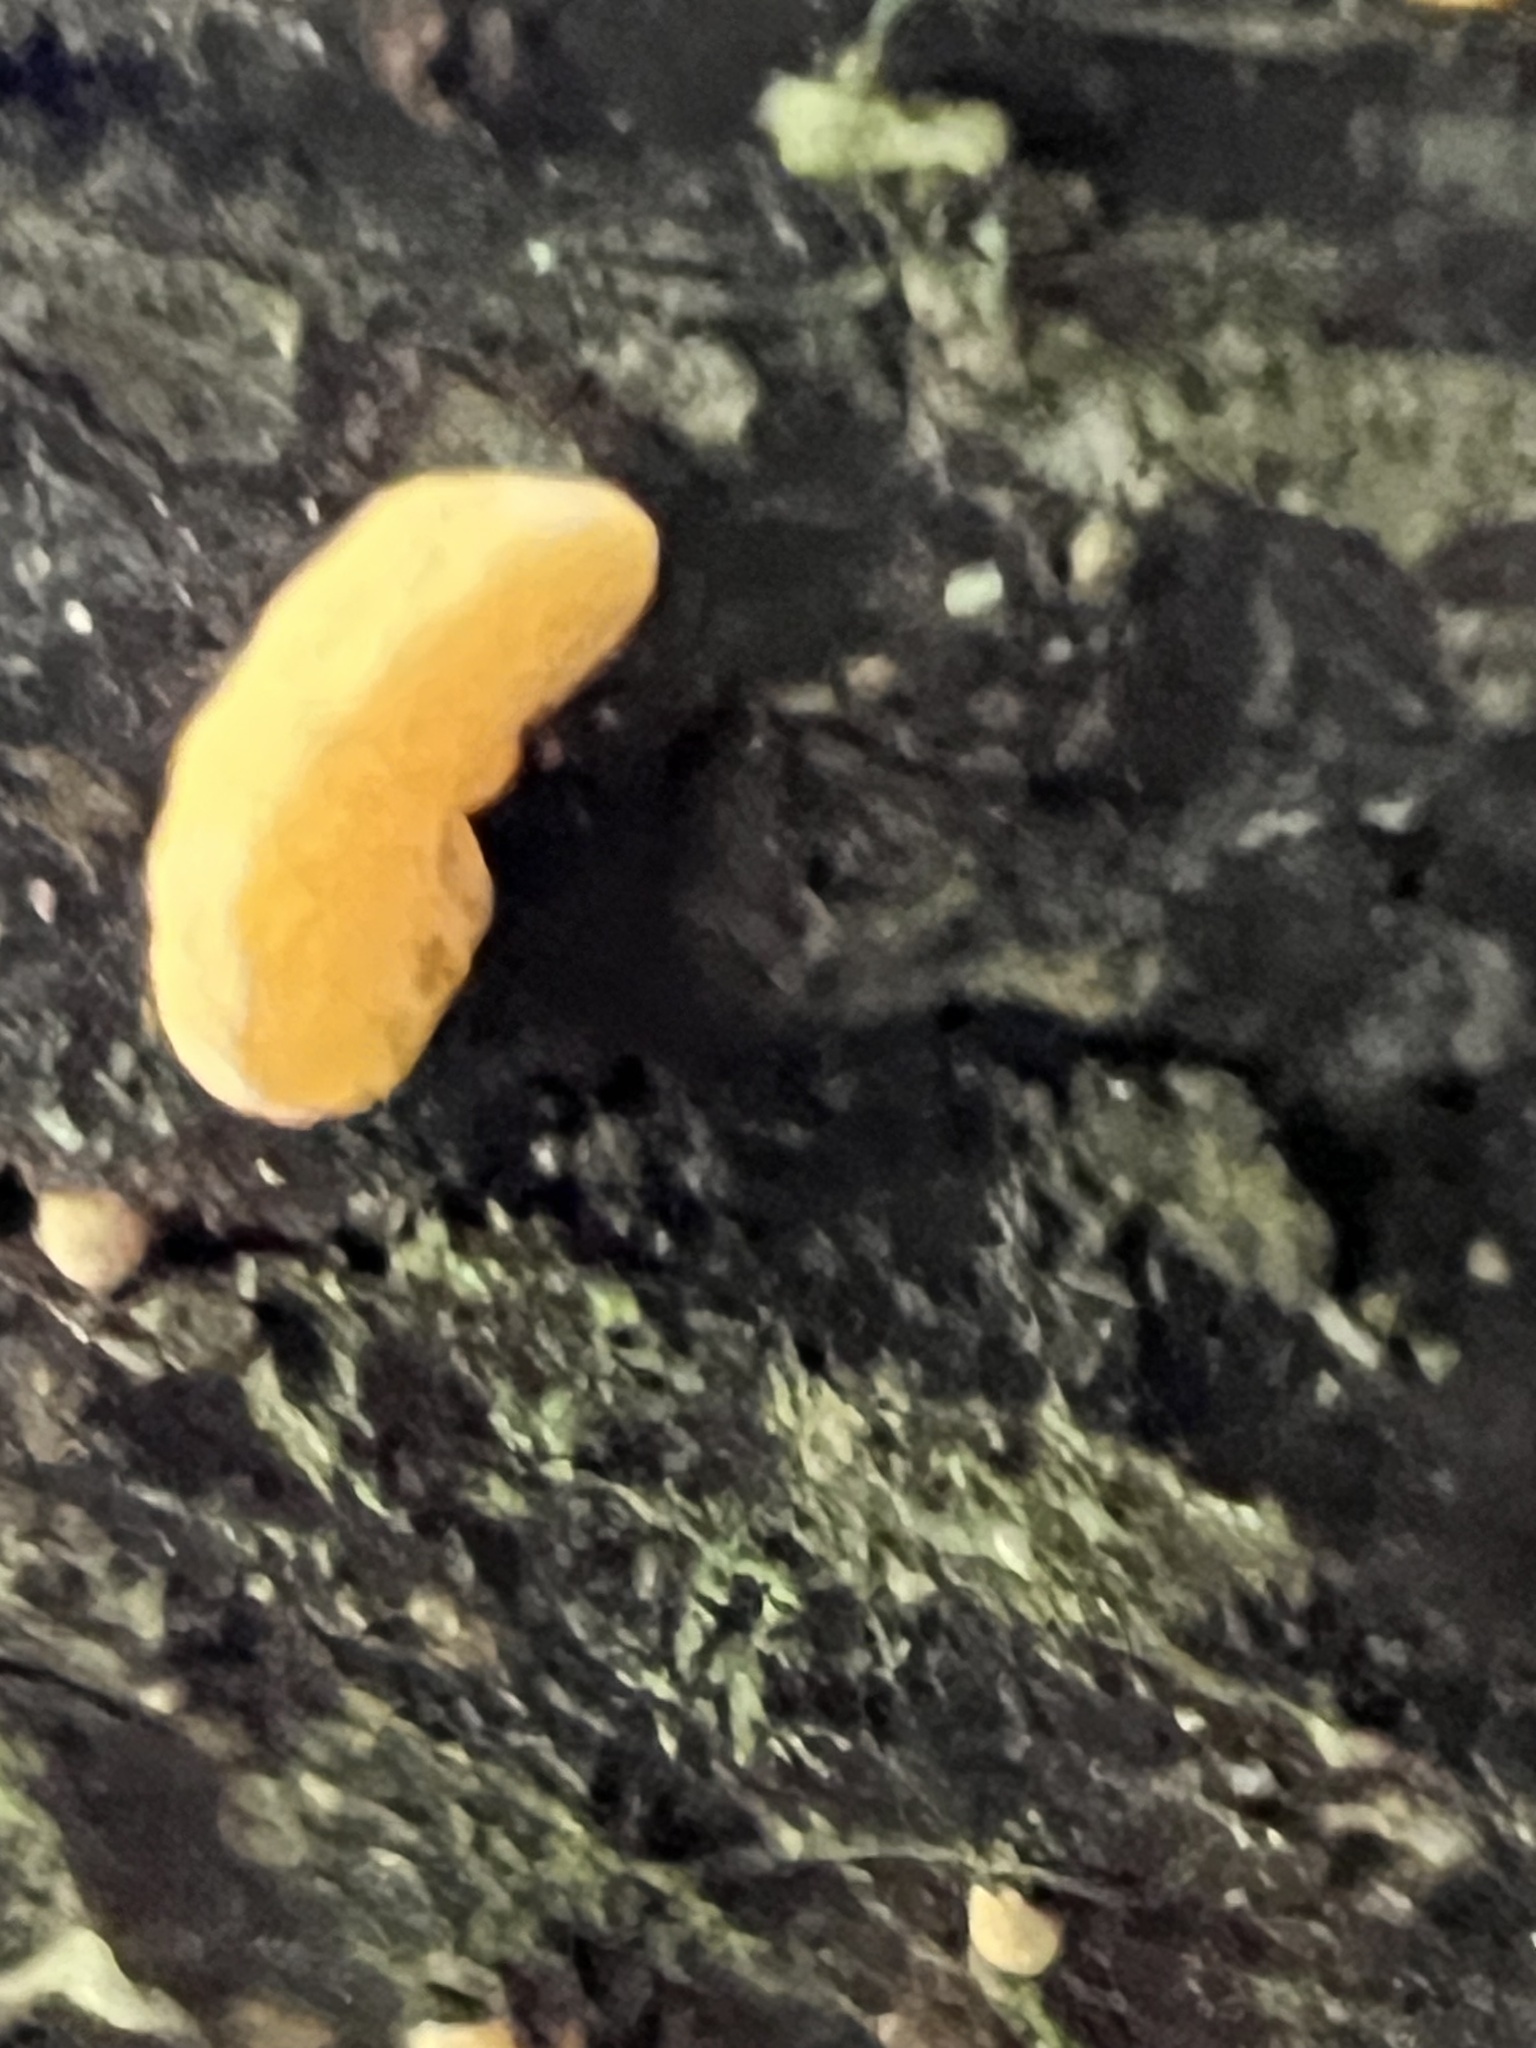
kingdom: Fungi
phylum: Basidiomycota
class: Agaricomycetes
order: Agaricales
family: Mycenaceae
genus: Favolaschia
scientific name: Favolaschia claudopus
